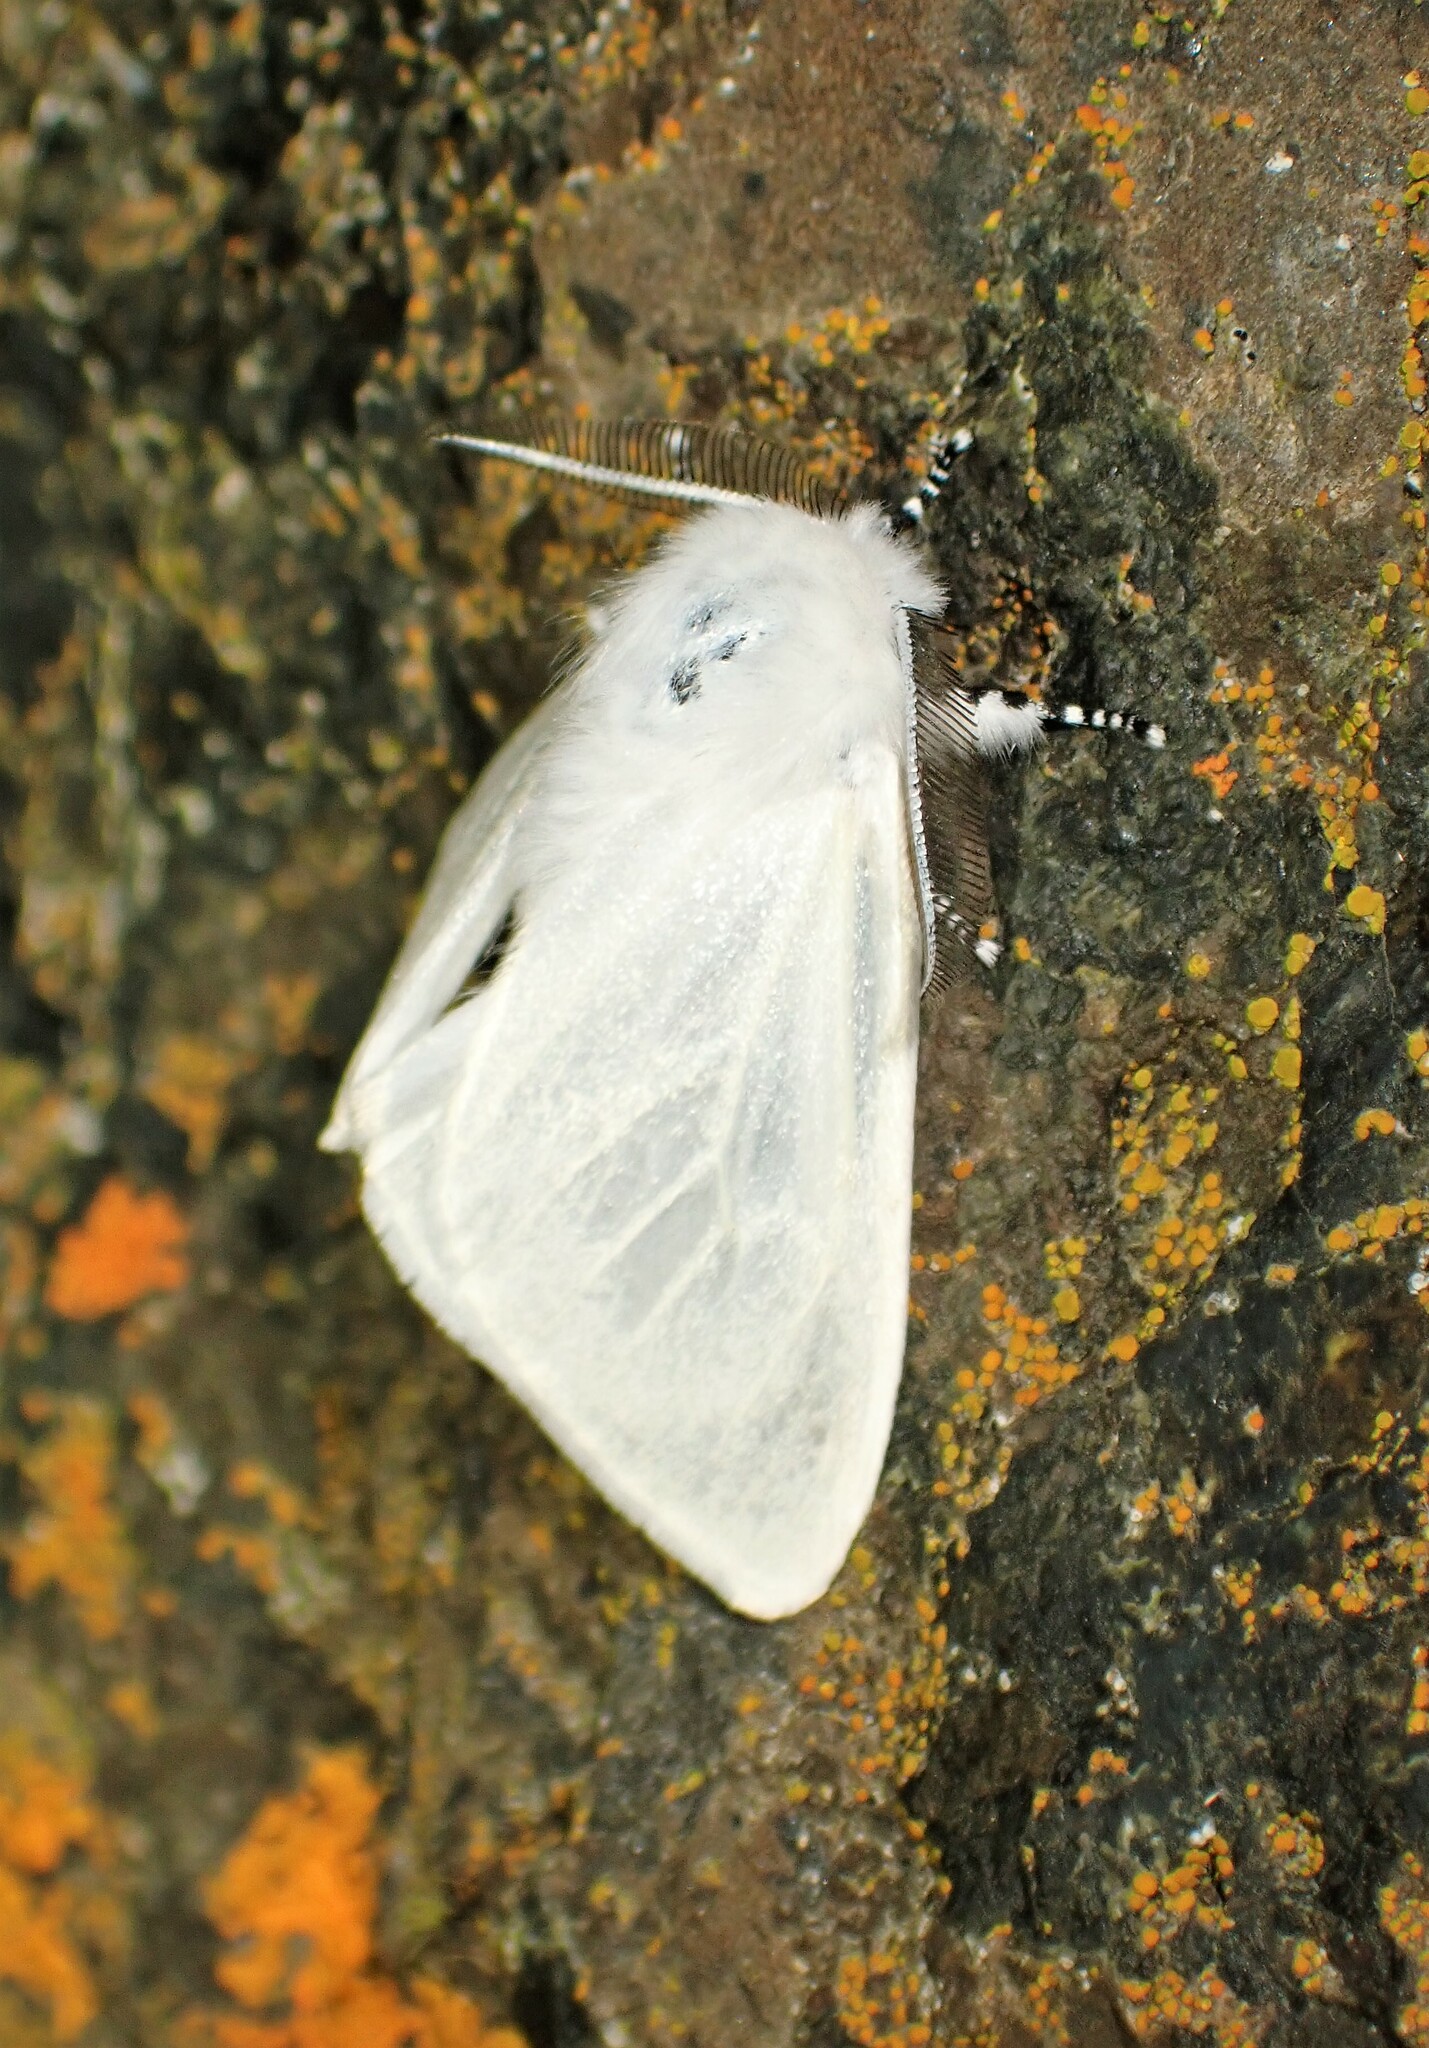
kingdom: Animalia
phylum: Arthropoda
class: Insecta
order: Lepidoptera
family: Erebidae
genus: Leucoma
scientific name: Leucoma salicis
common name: White satin moth
